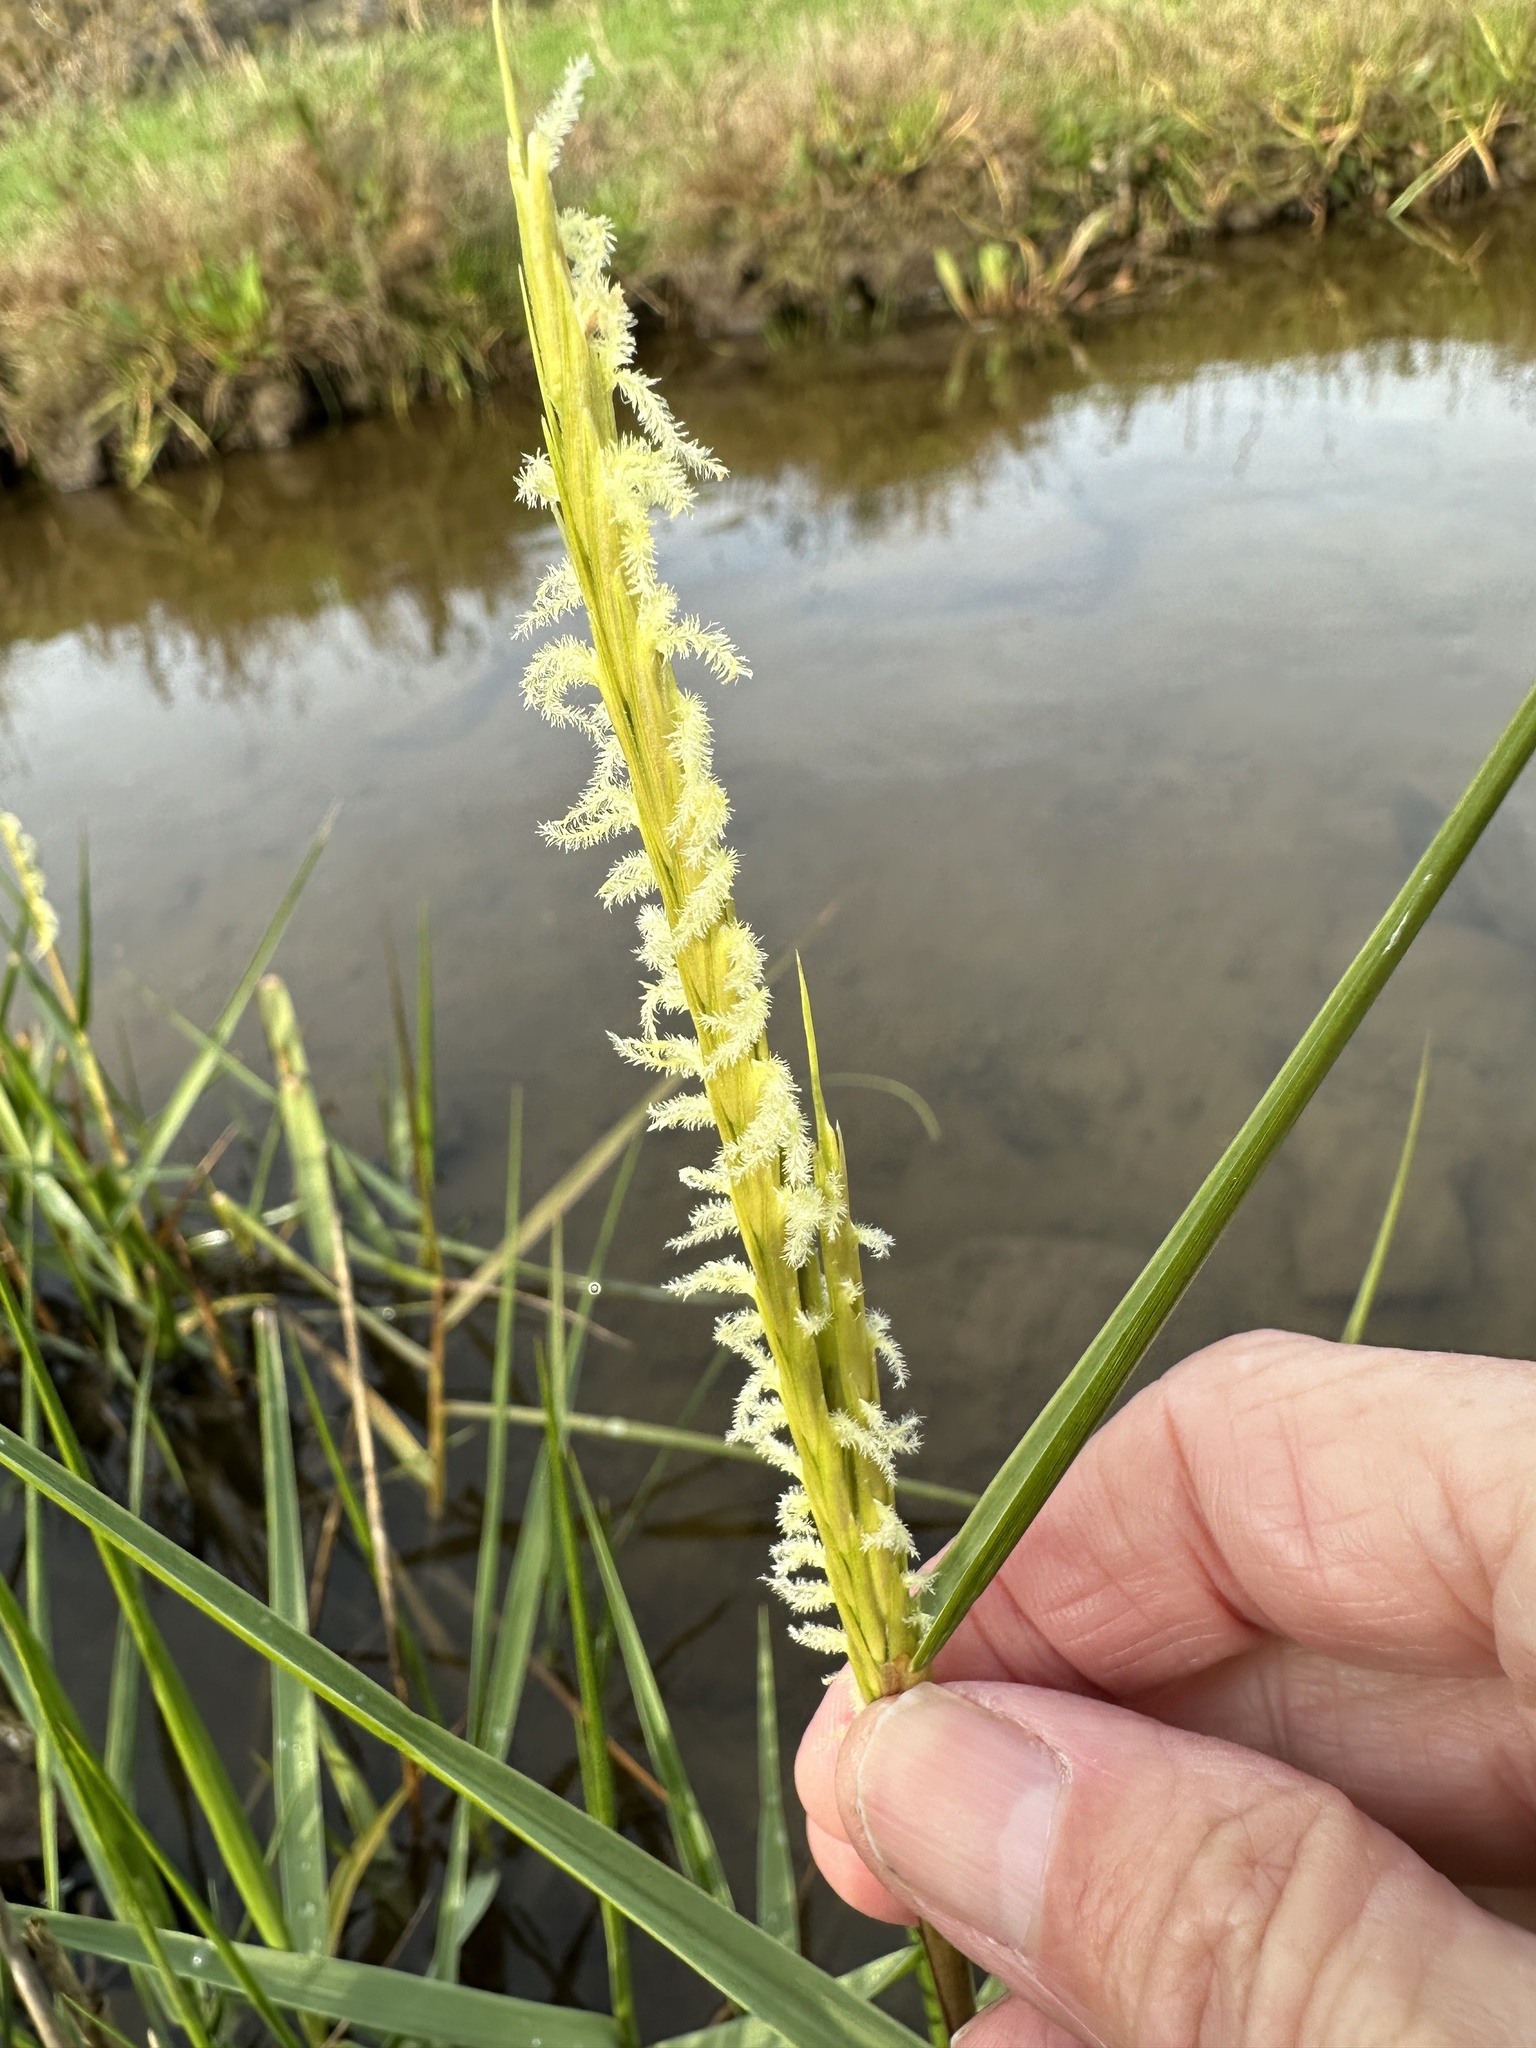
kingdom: Plantae
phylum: Tracheophyta
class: Liliopsida
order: Poales
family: Poaceae
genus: Sporobolus
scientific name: Sporobolus anglicus
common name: English cordgrass
